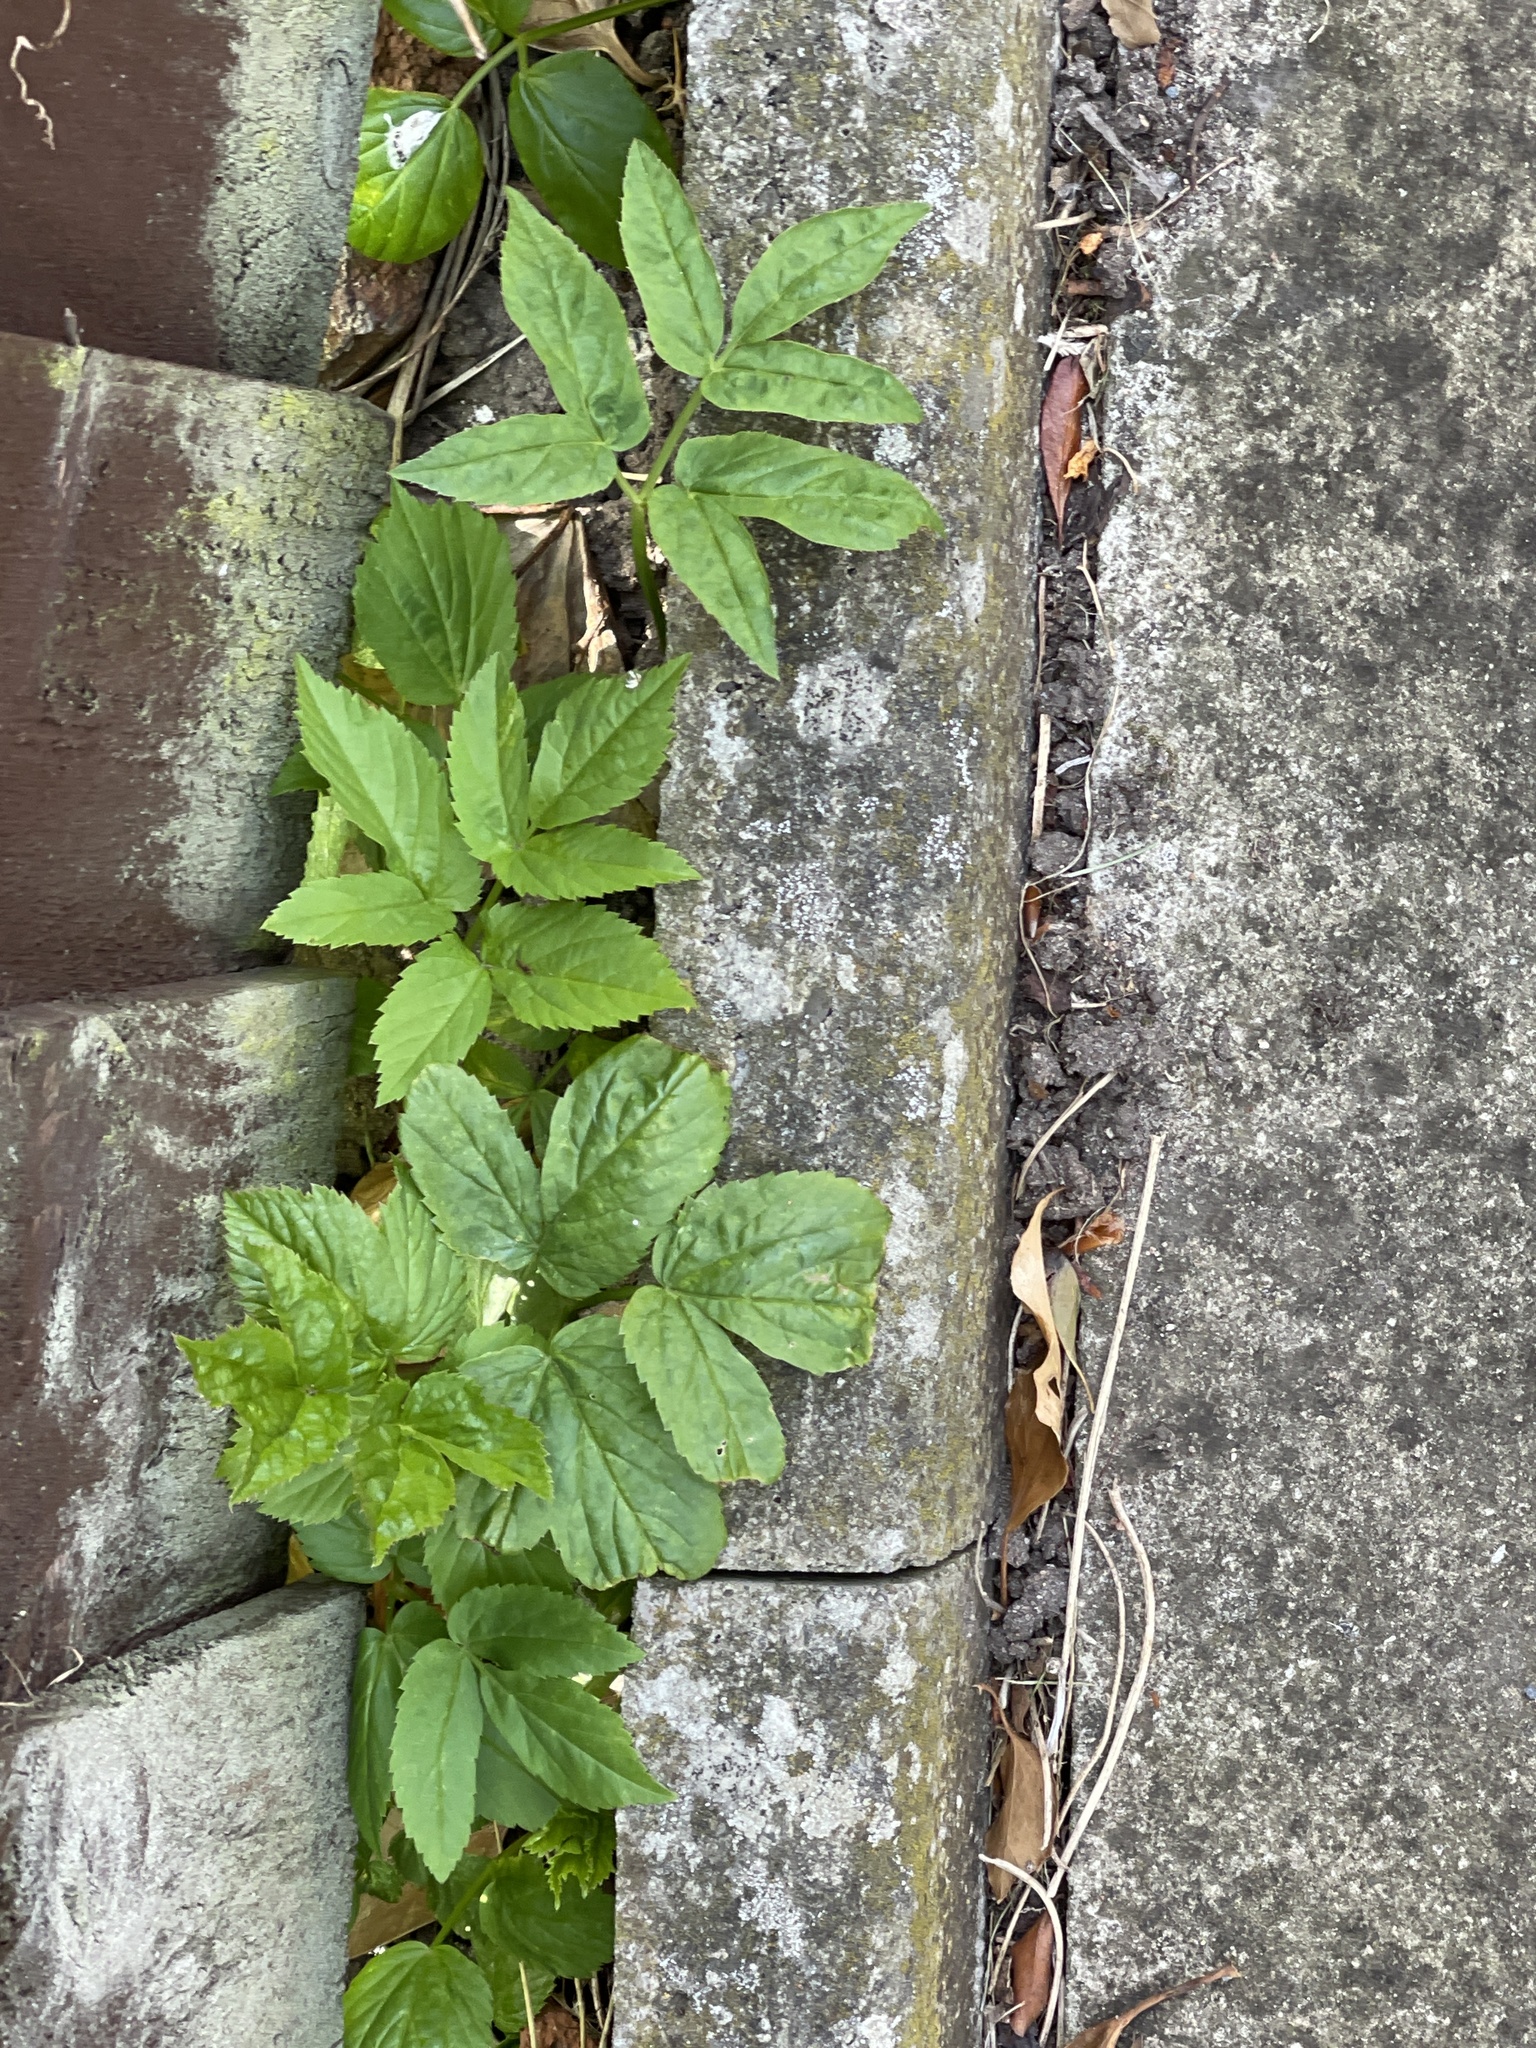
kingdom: Plantae
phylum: Tracheophyta
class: Magnoliopsida
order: Apiales
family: Apiaceae
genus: Aegopodium
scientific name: Aegopodium podagraria
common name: Ground-elder
